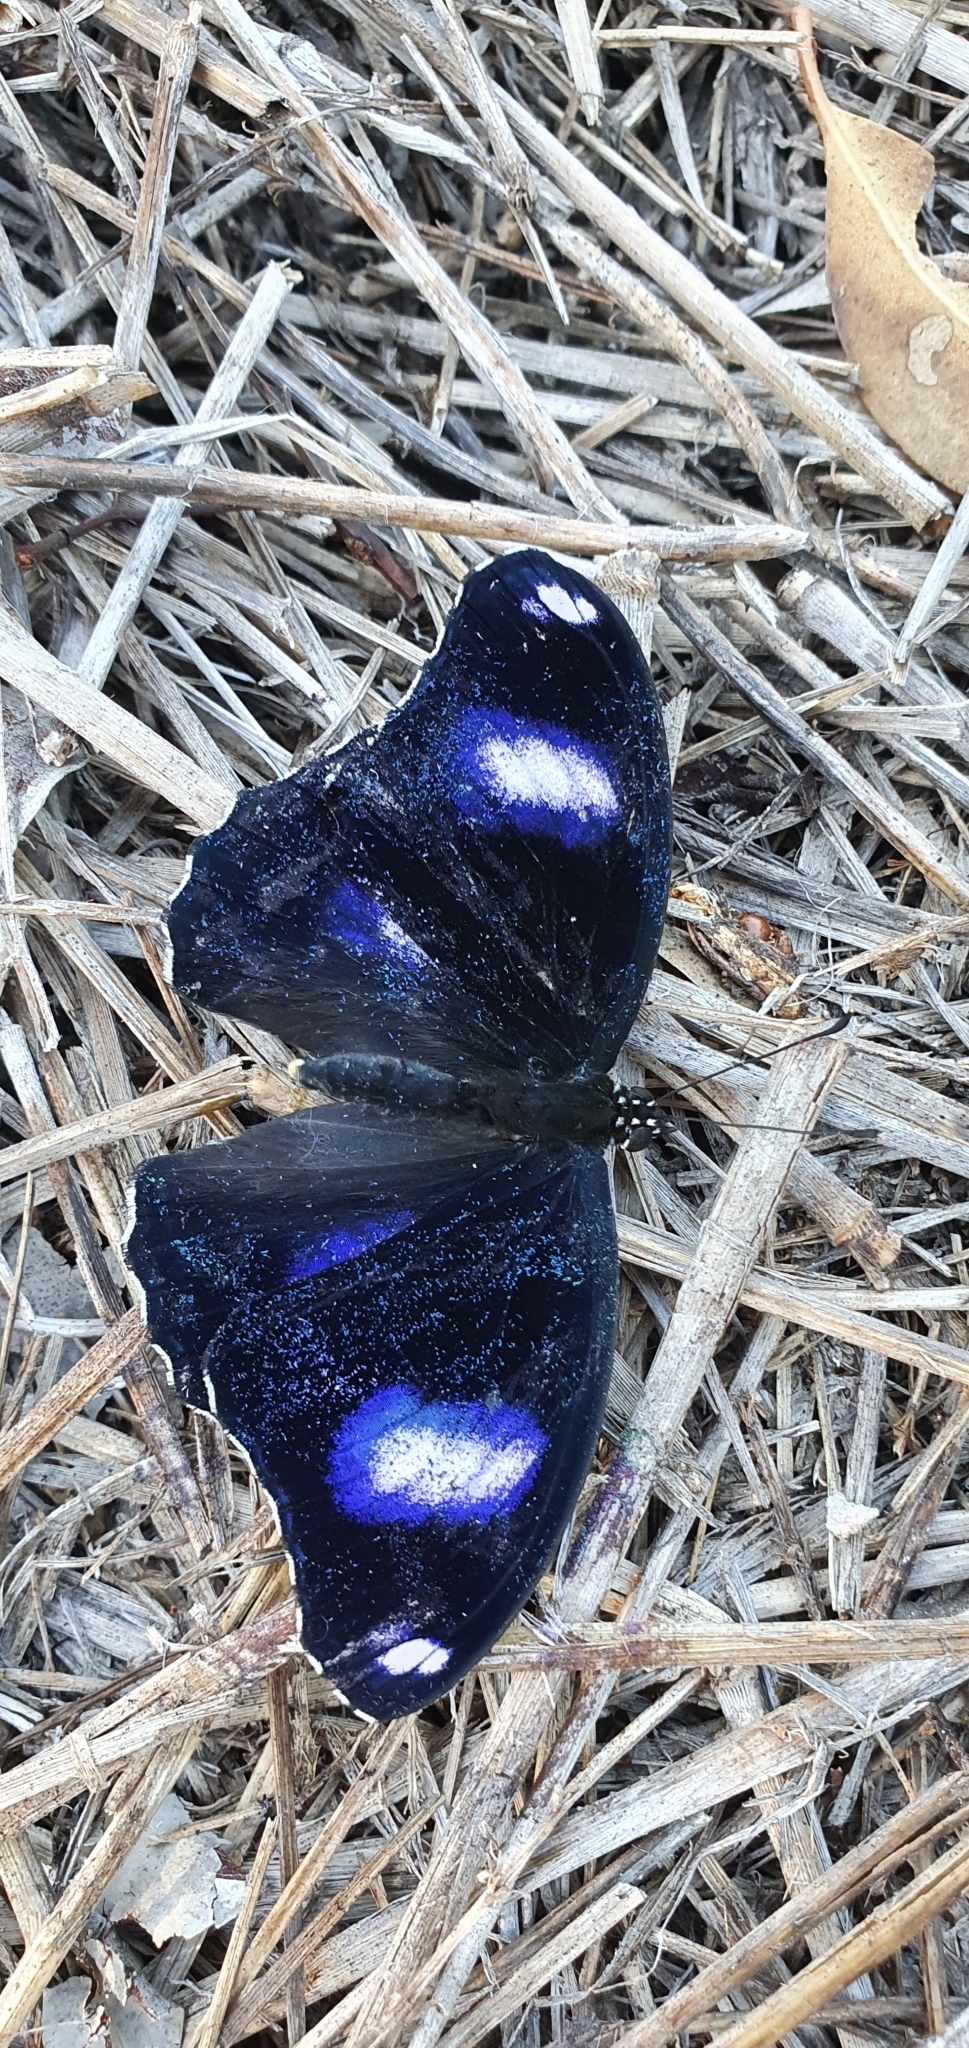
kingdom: Animalia
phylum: Arthropoda
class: Insecta
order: Lepidoptera
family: Nymphalidae
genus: Hypolimnas
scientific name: Hypolimnas bolina
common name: Great eggfly
